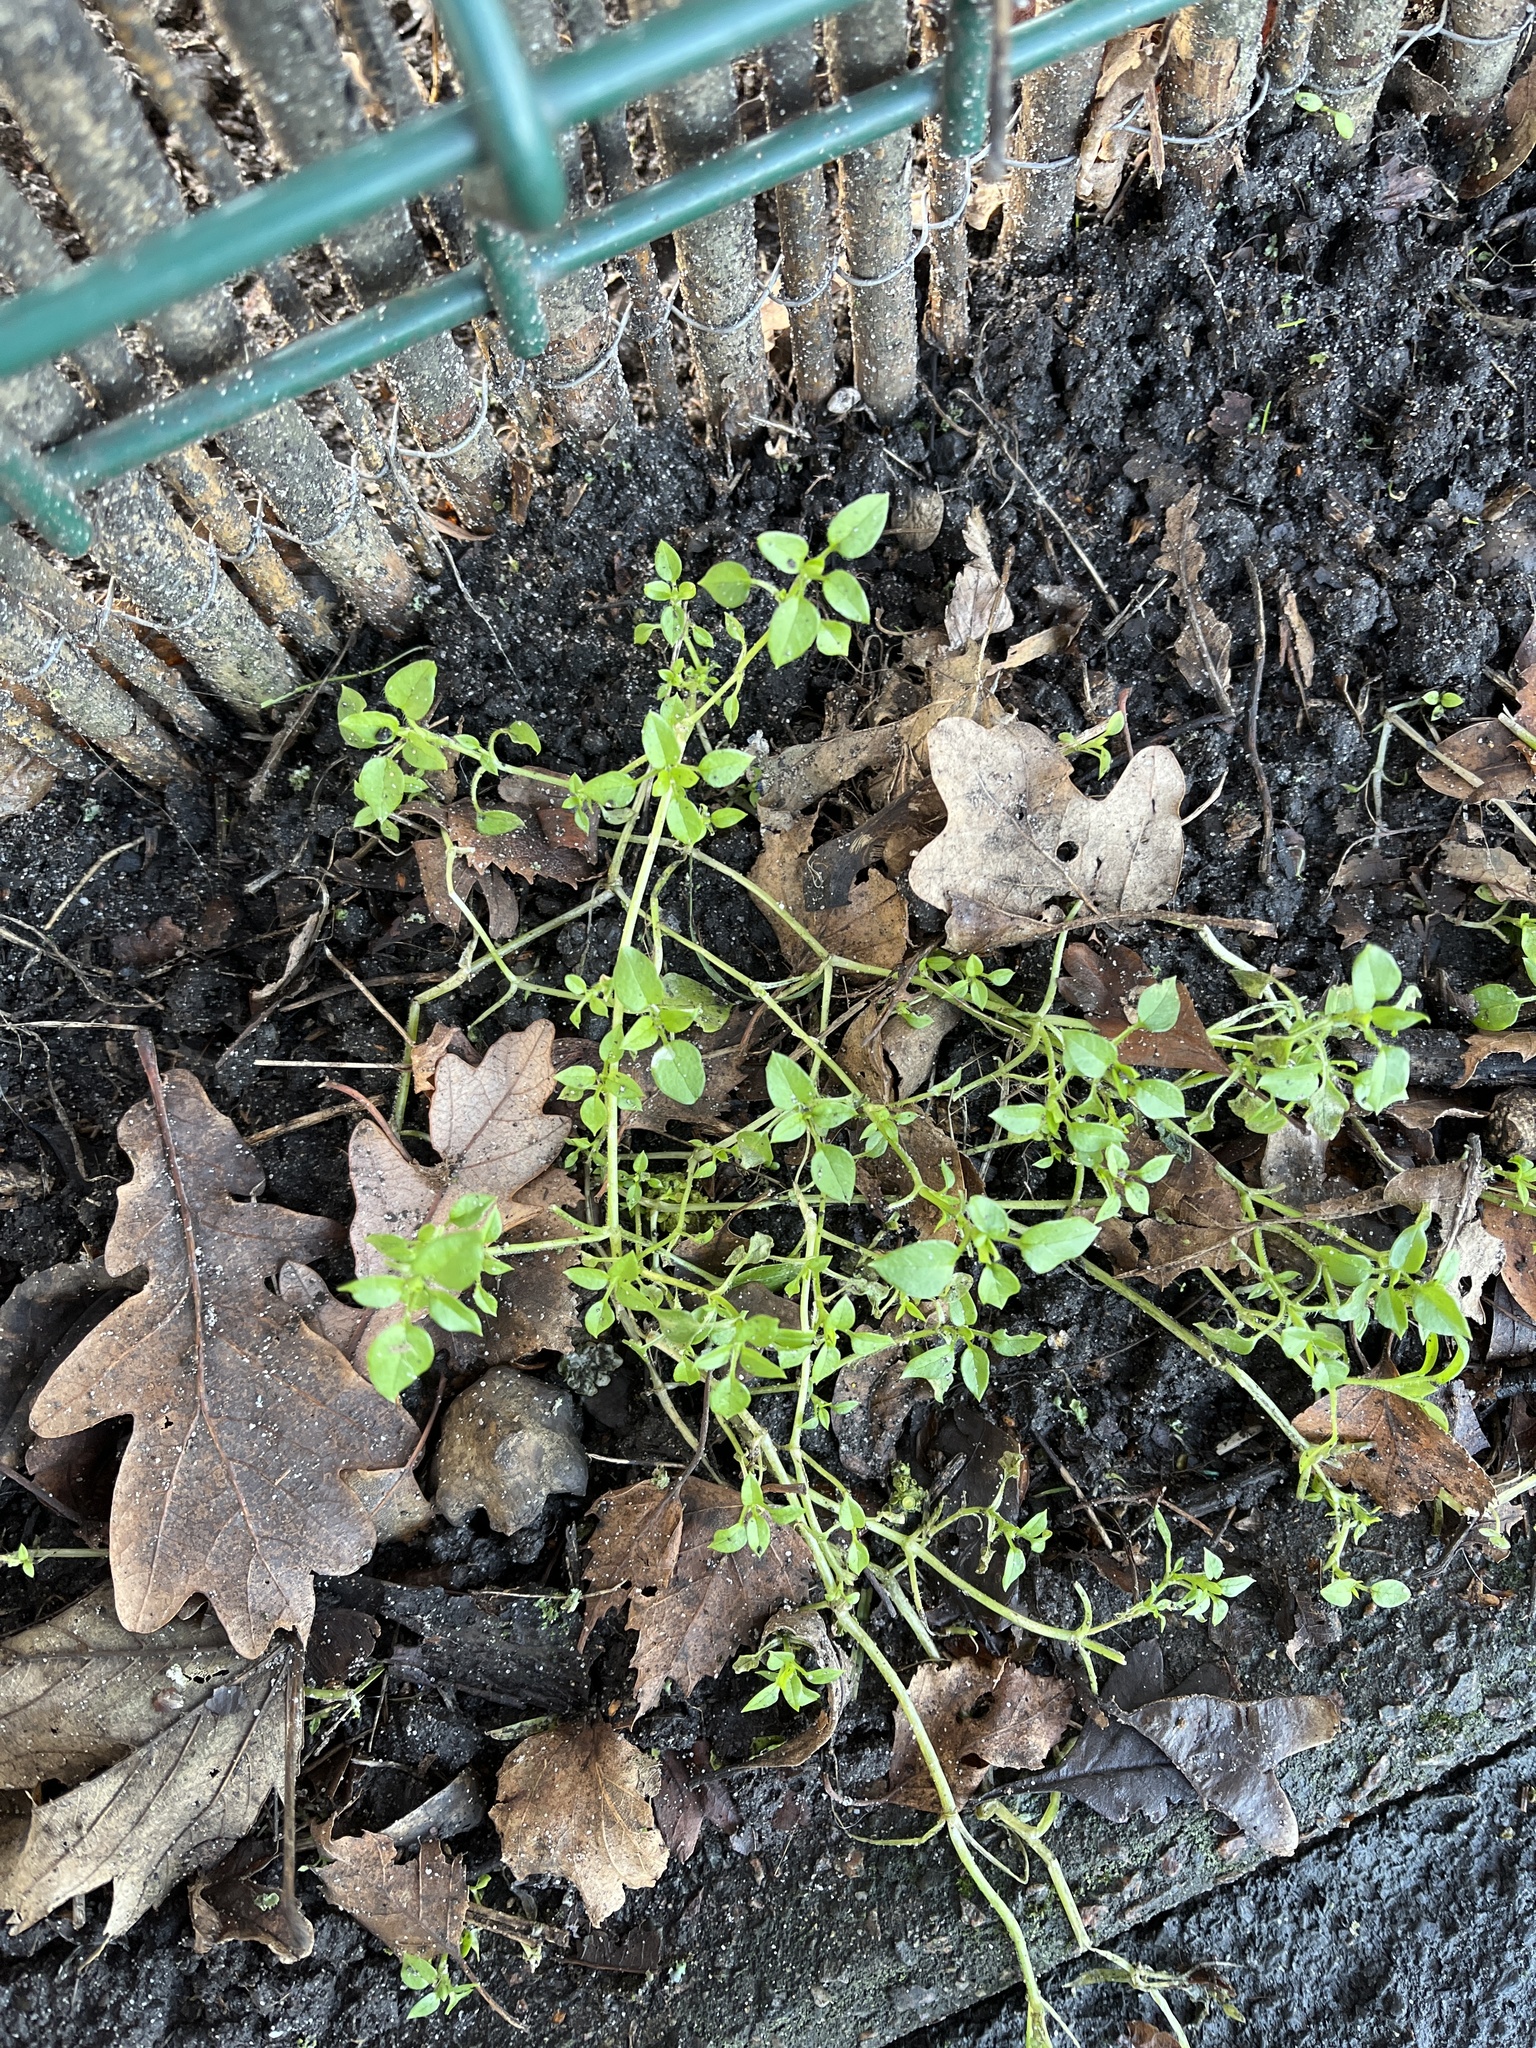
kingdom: Plantae
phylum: Tracheophyta
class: Magnoliopsida
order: Caryophyllales
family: Caryophyllaceae
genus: Stellaria
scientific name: Stellaria media
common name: Common chickweed
